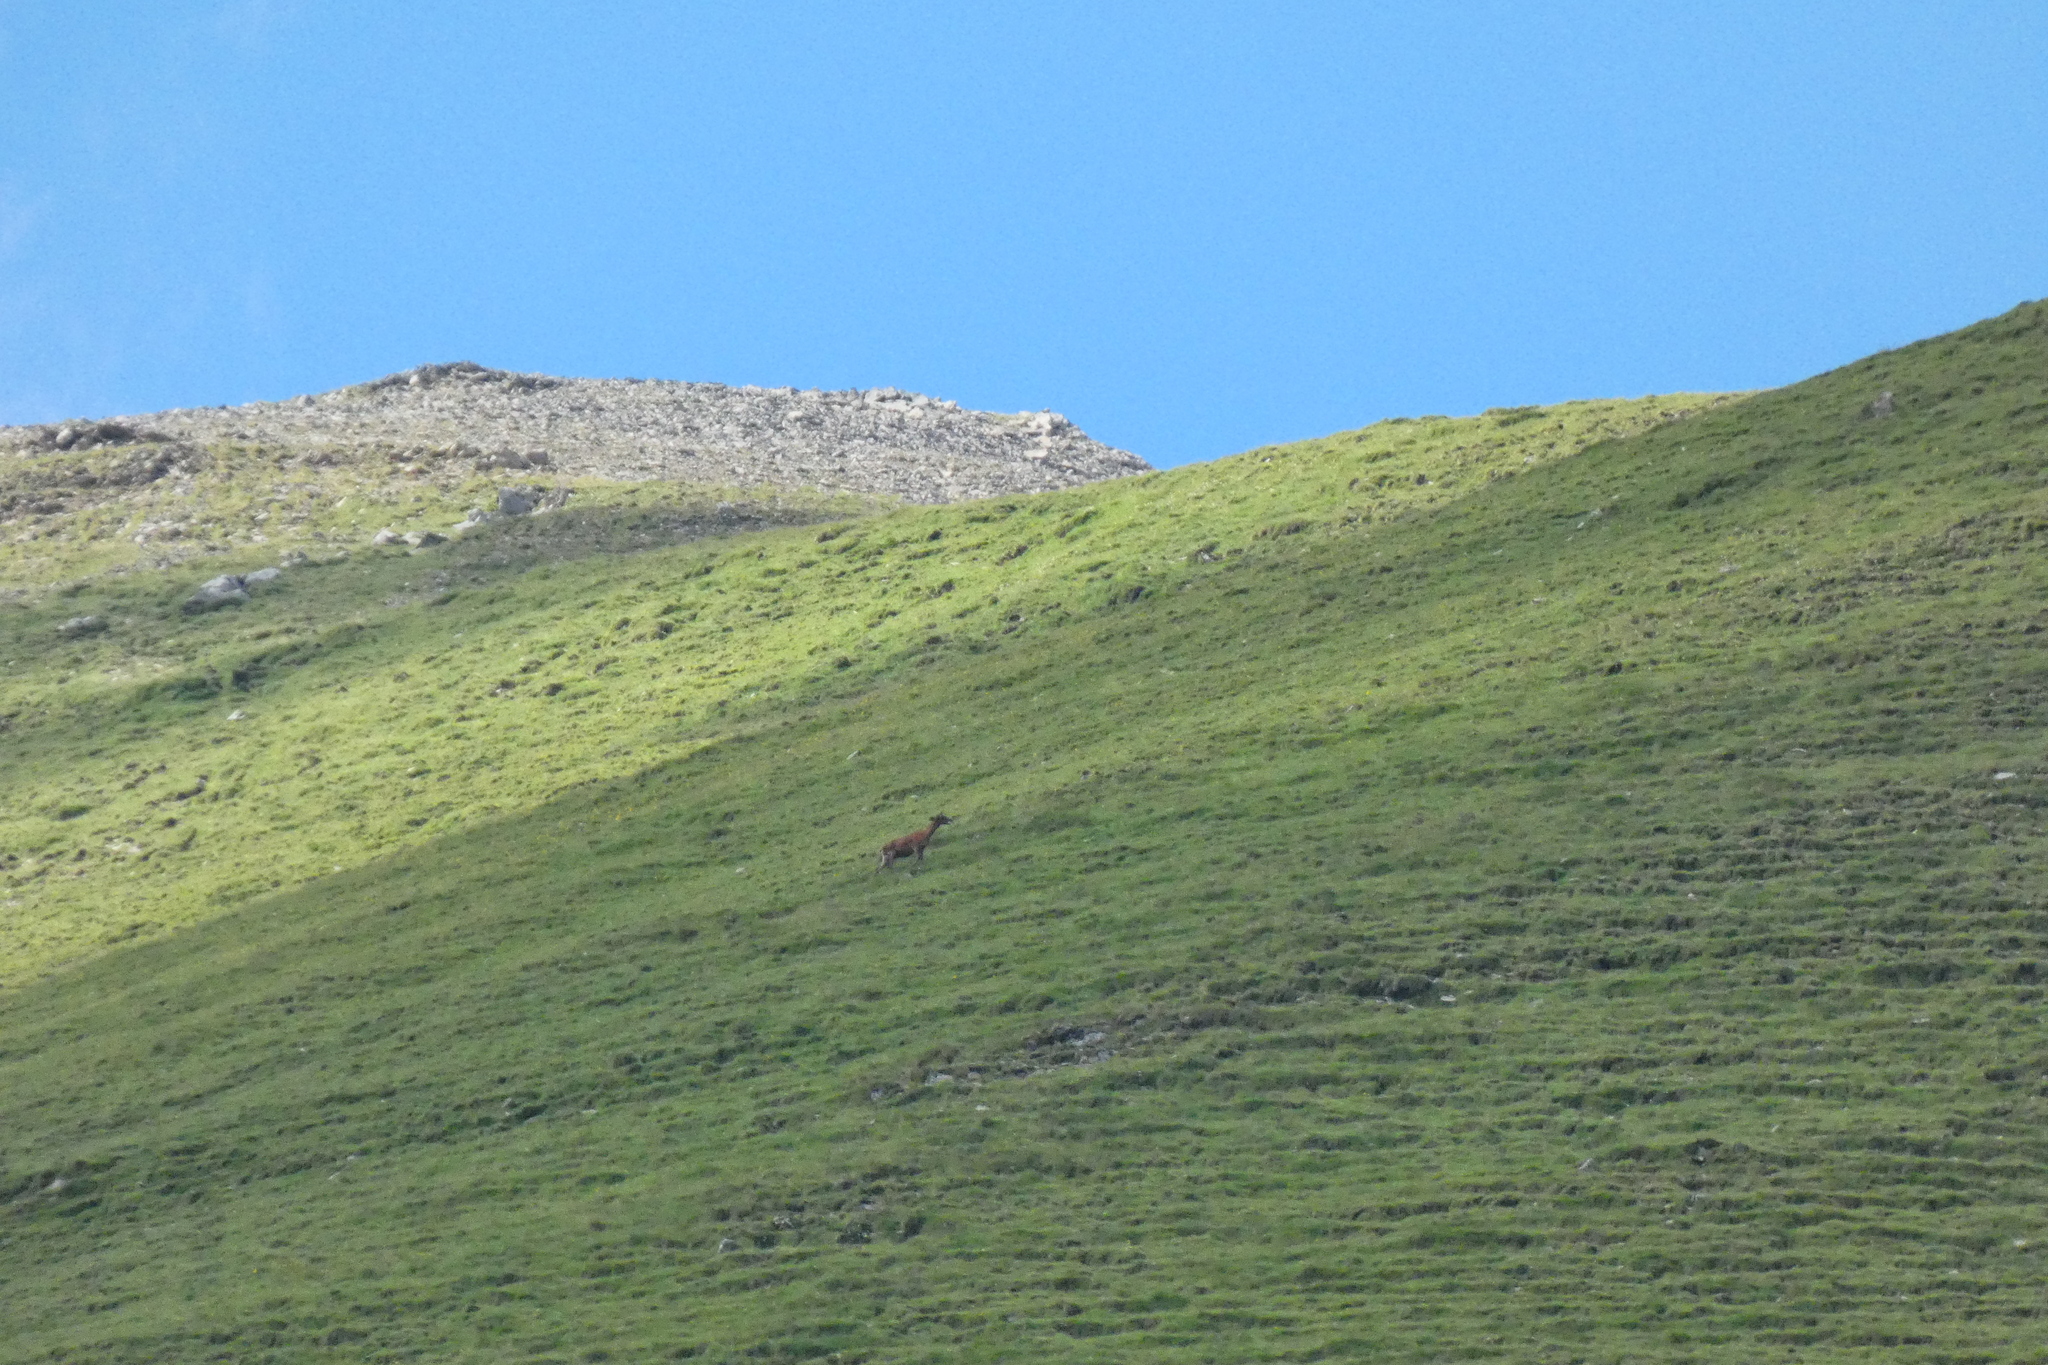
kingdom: Animalia
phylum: Chordata
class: Mammalia
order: Artiodactyla
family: Cervidae
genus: Cervus
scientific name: Cervus elaphus
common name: Red deer
